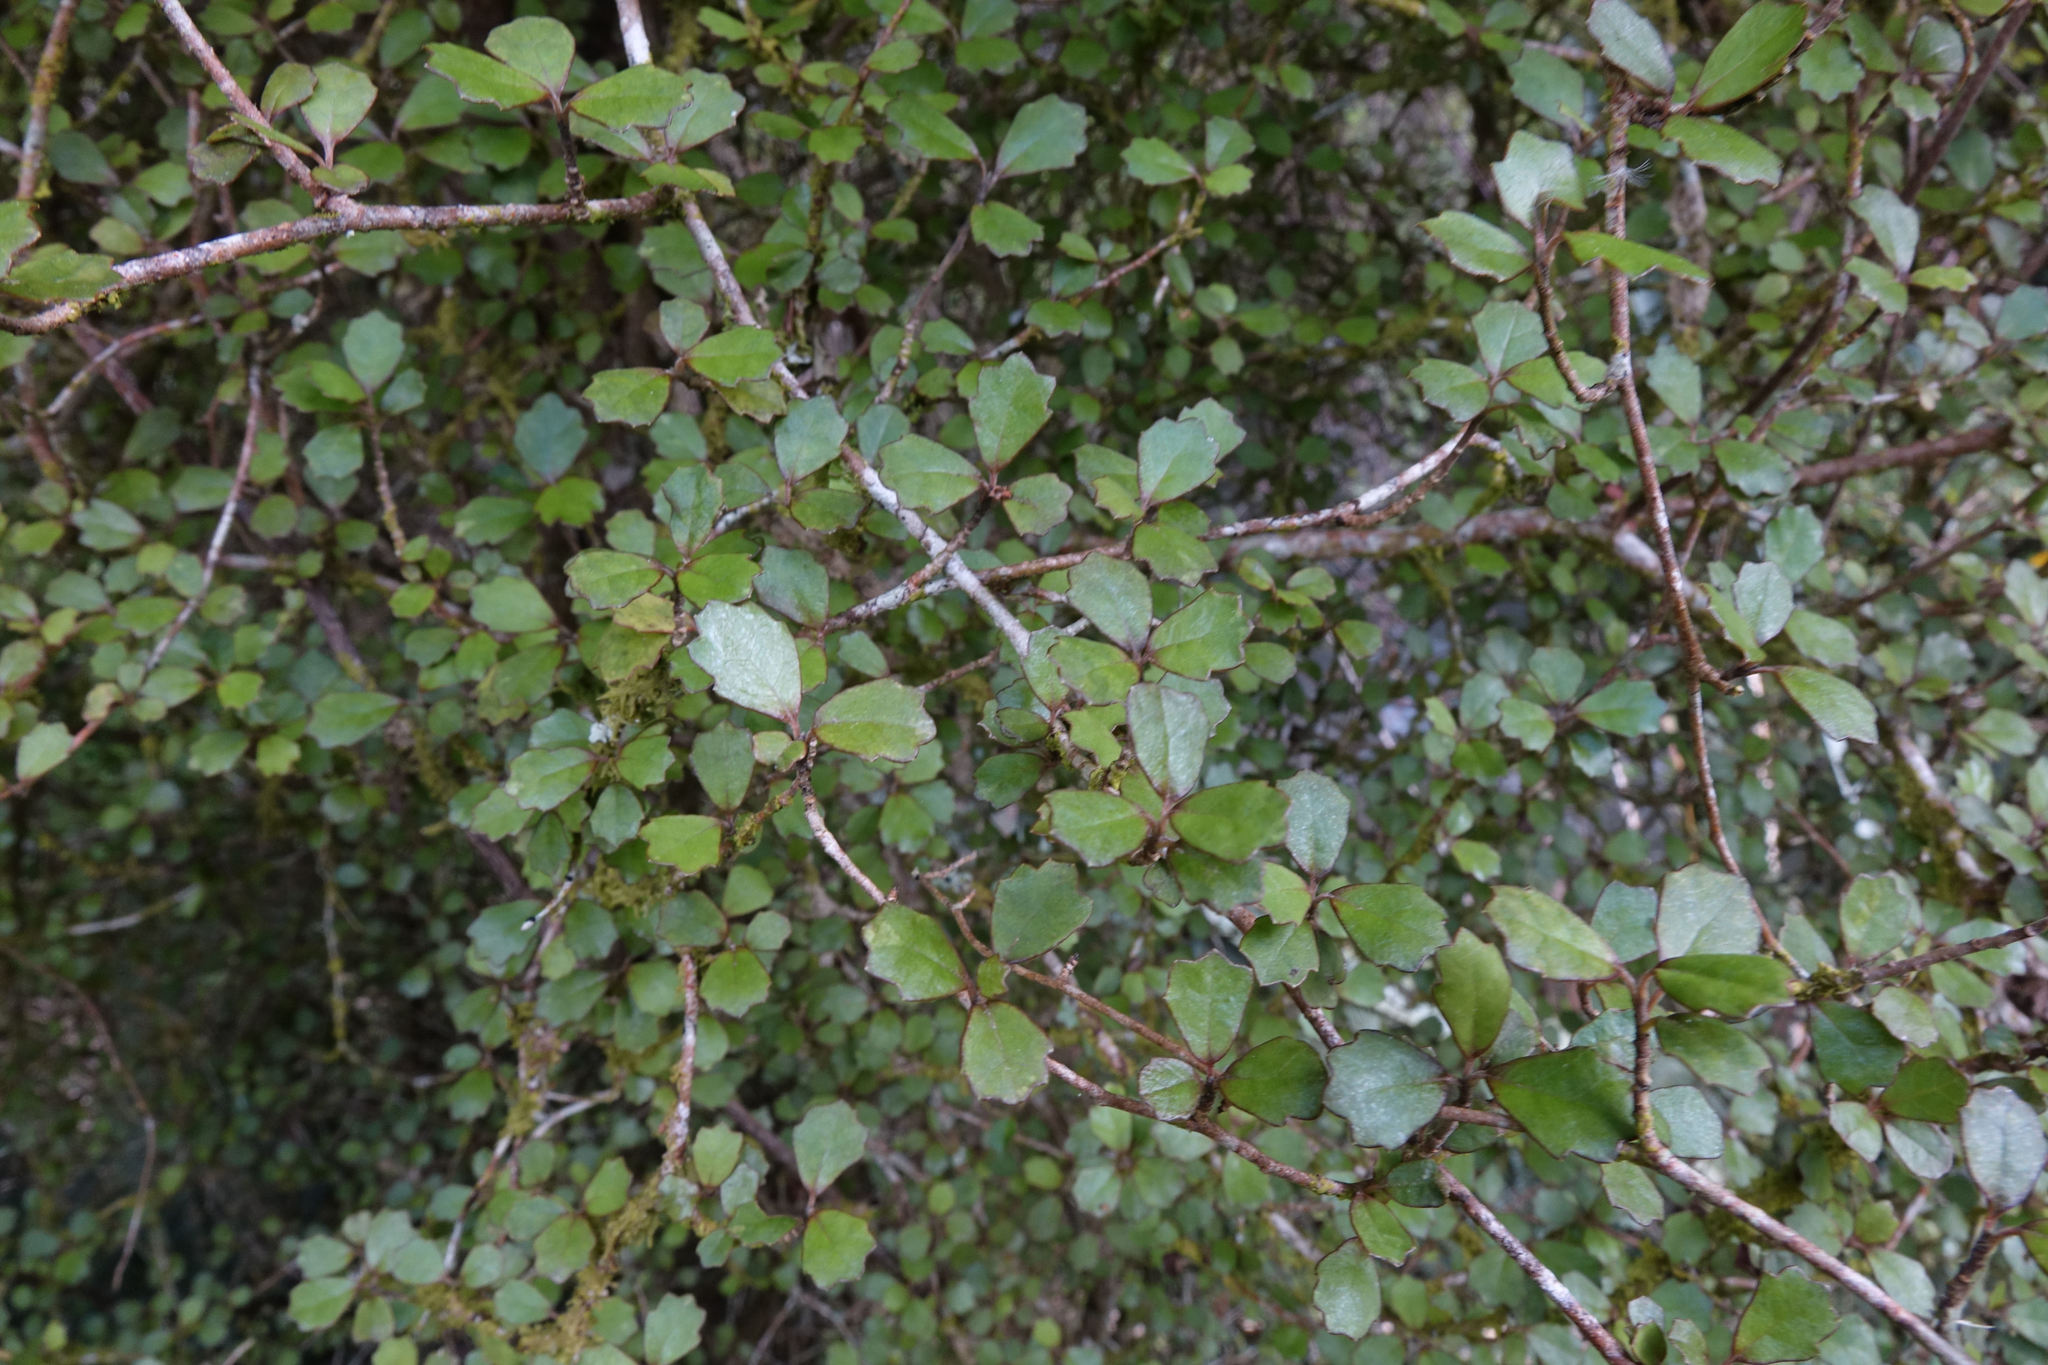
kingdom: Plantae
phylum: Tracheophyta
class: Magnoliopsida
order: Apiales
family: Pennantiaceae
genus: Pennantia
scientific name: Pennantia corymbosa
